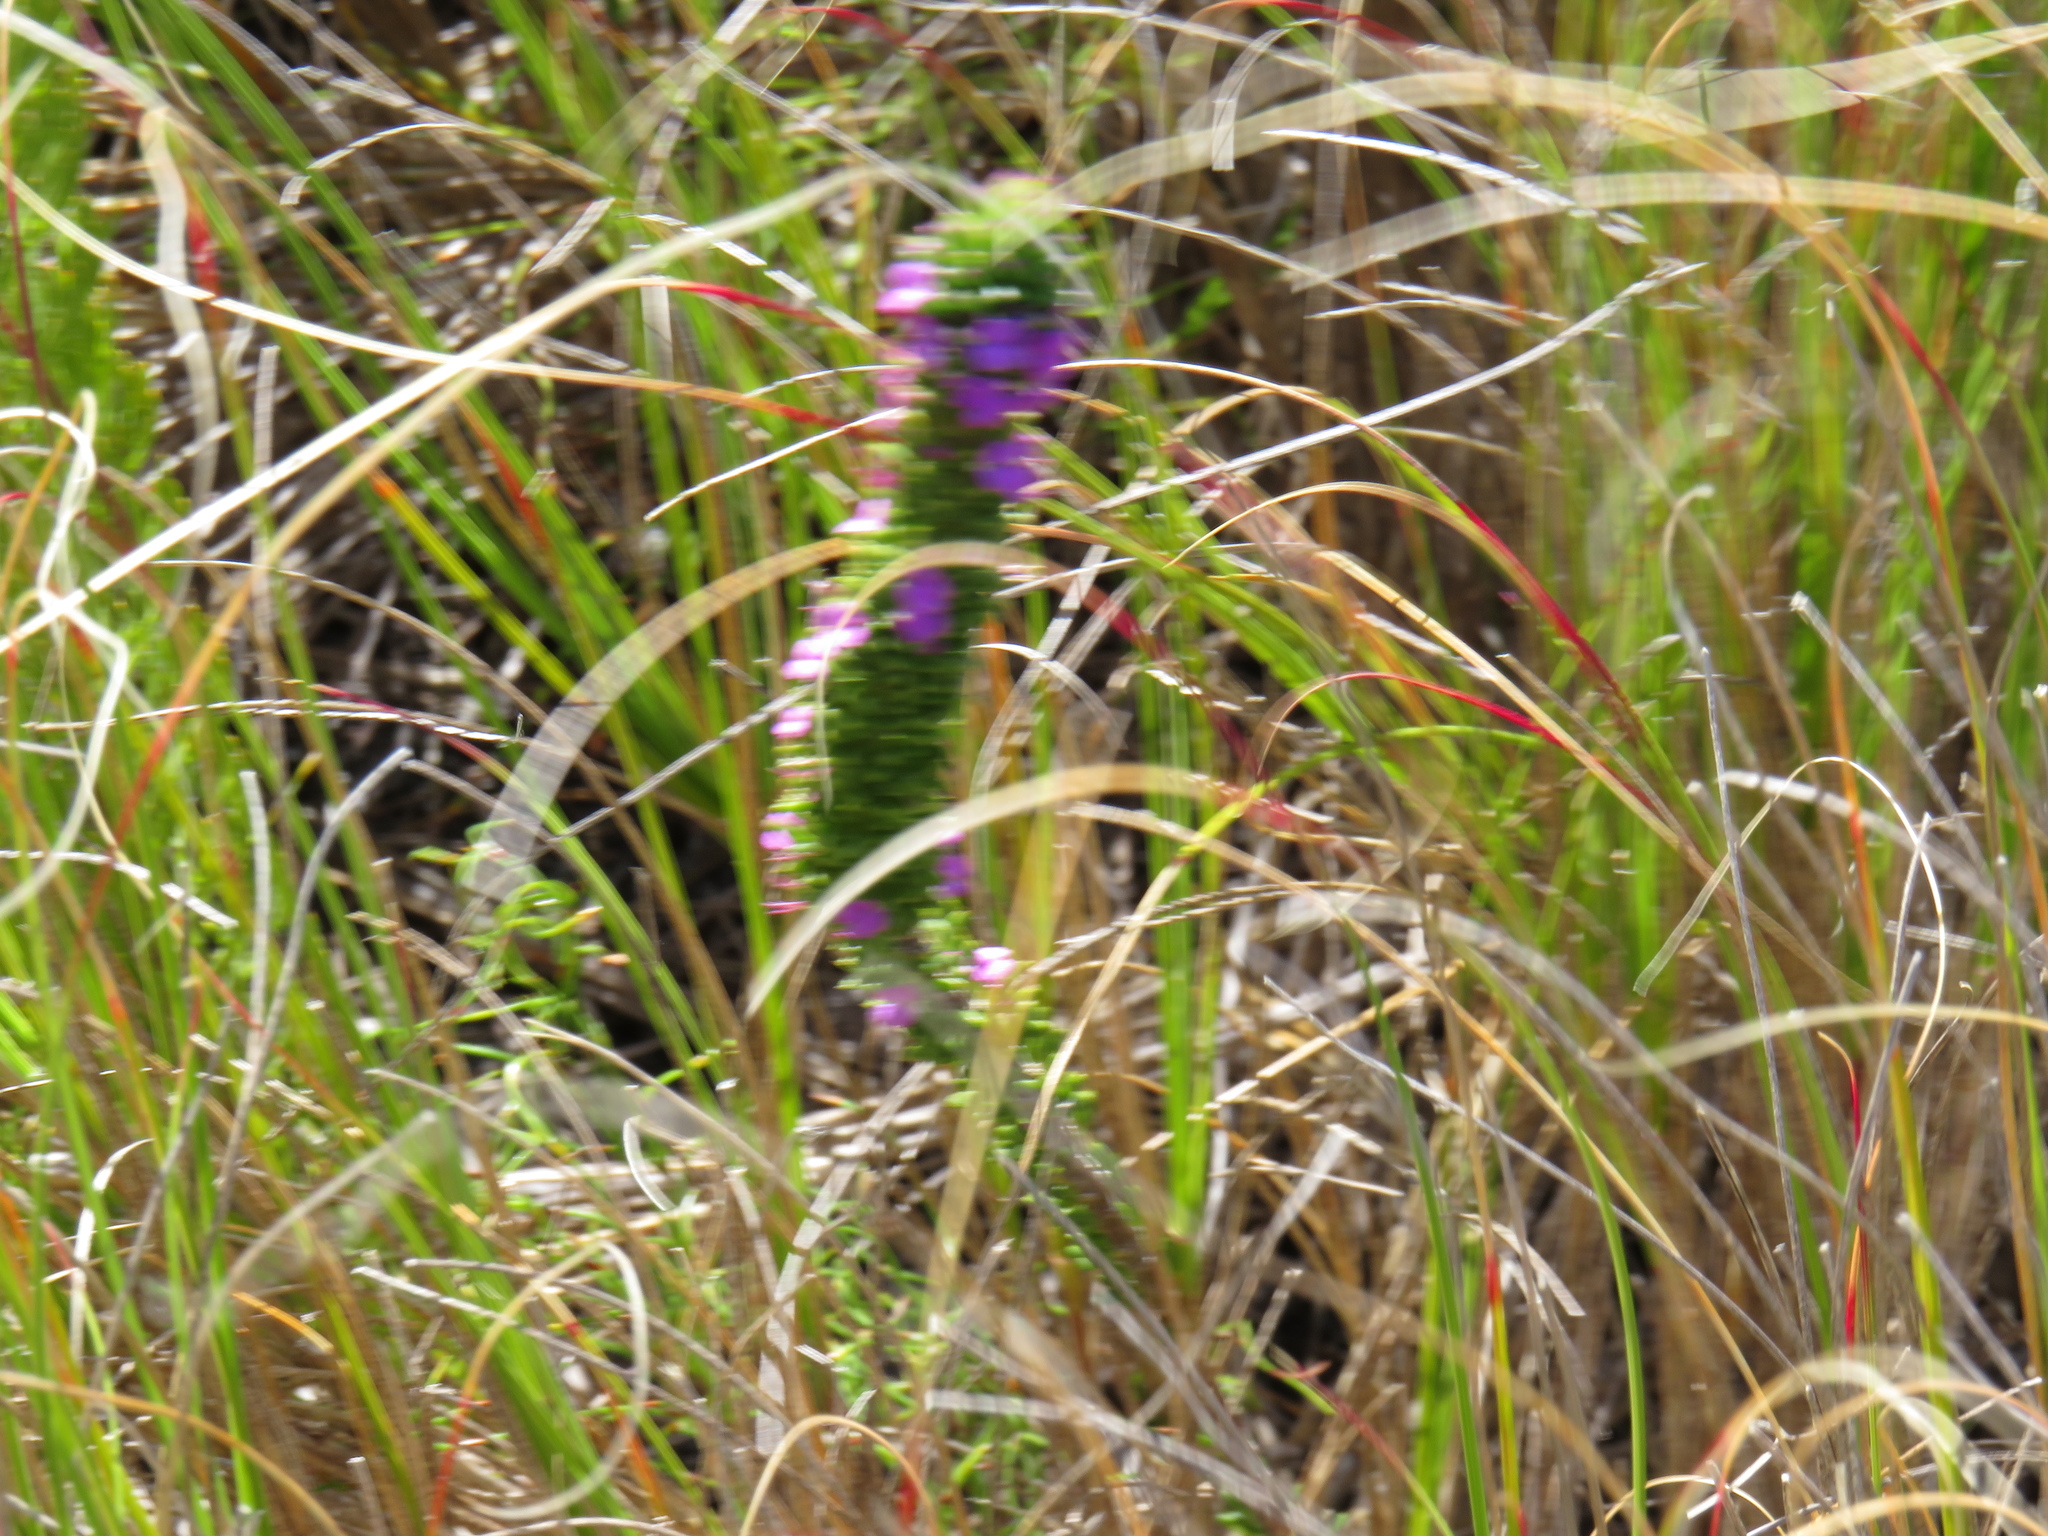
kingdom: Plantae
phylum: Tracheophyta
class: Magnoliopsida
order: Fabales
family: Polygalaceae
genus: Muraltia
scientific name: Muraltia thunbergii
